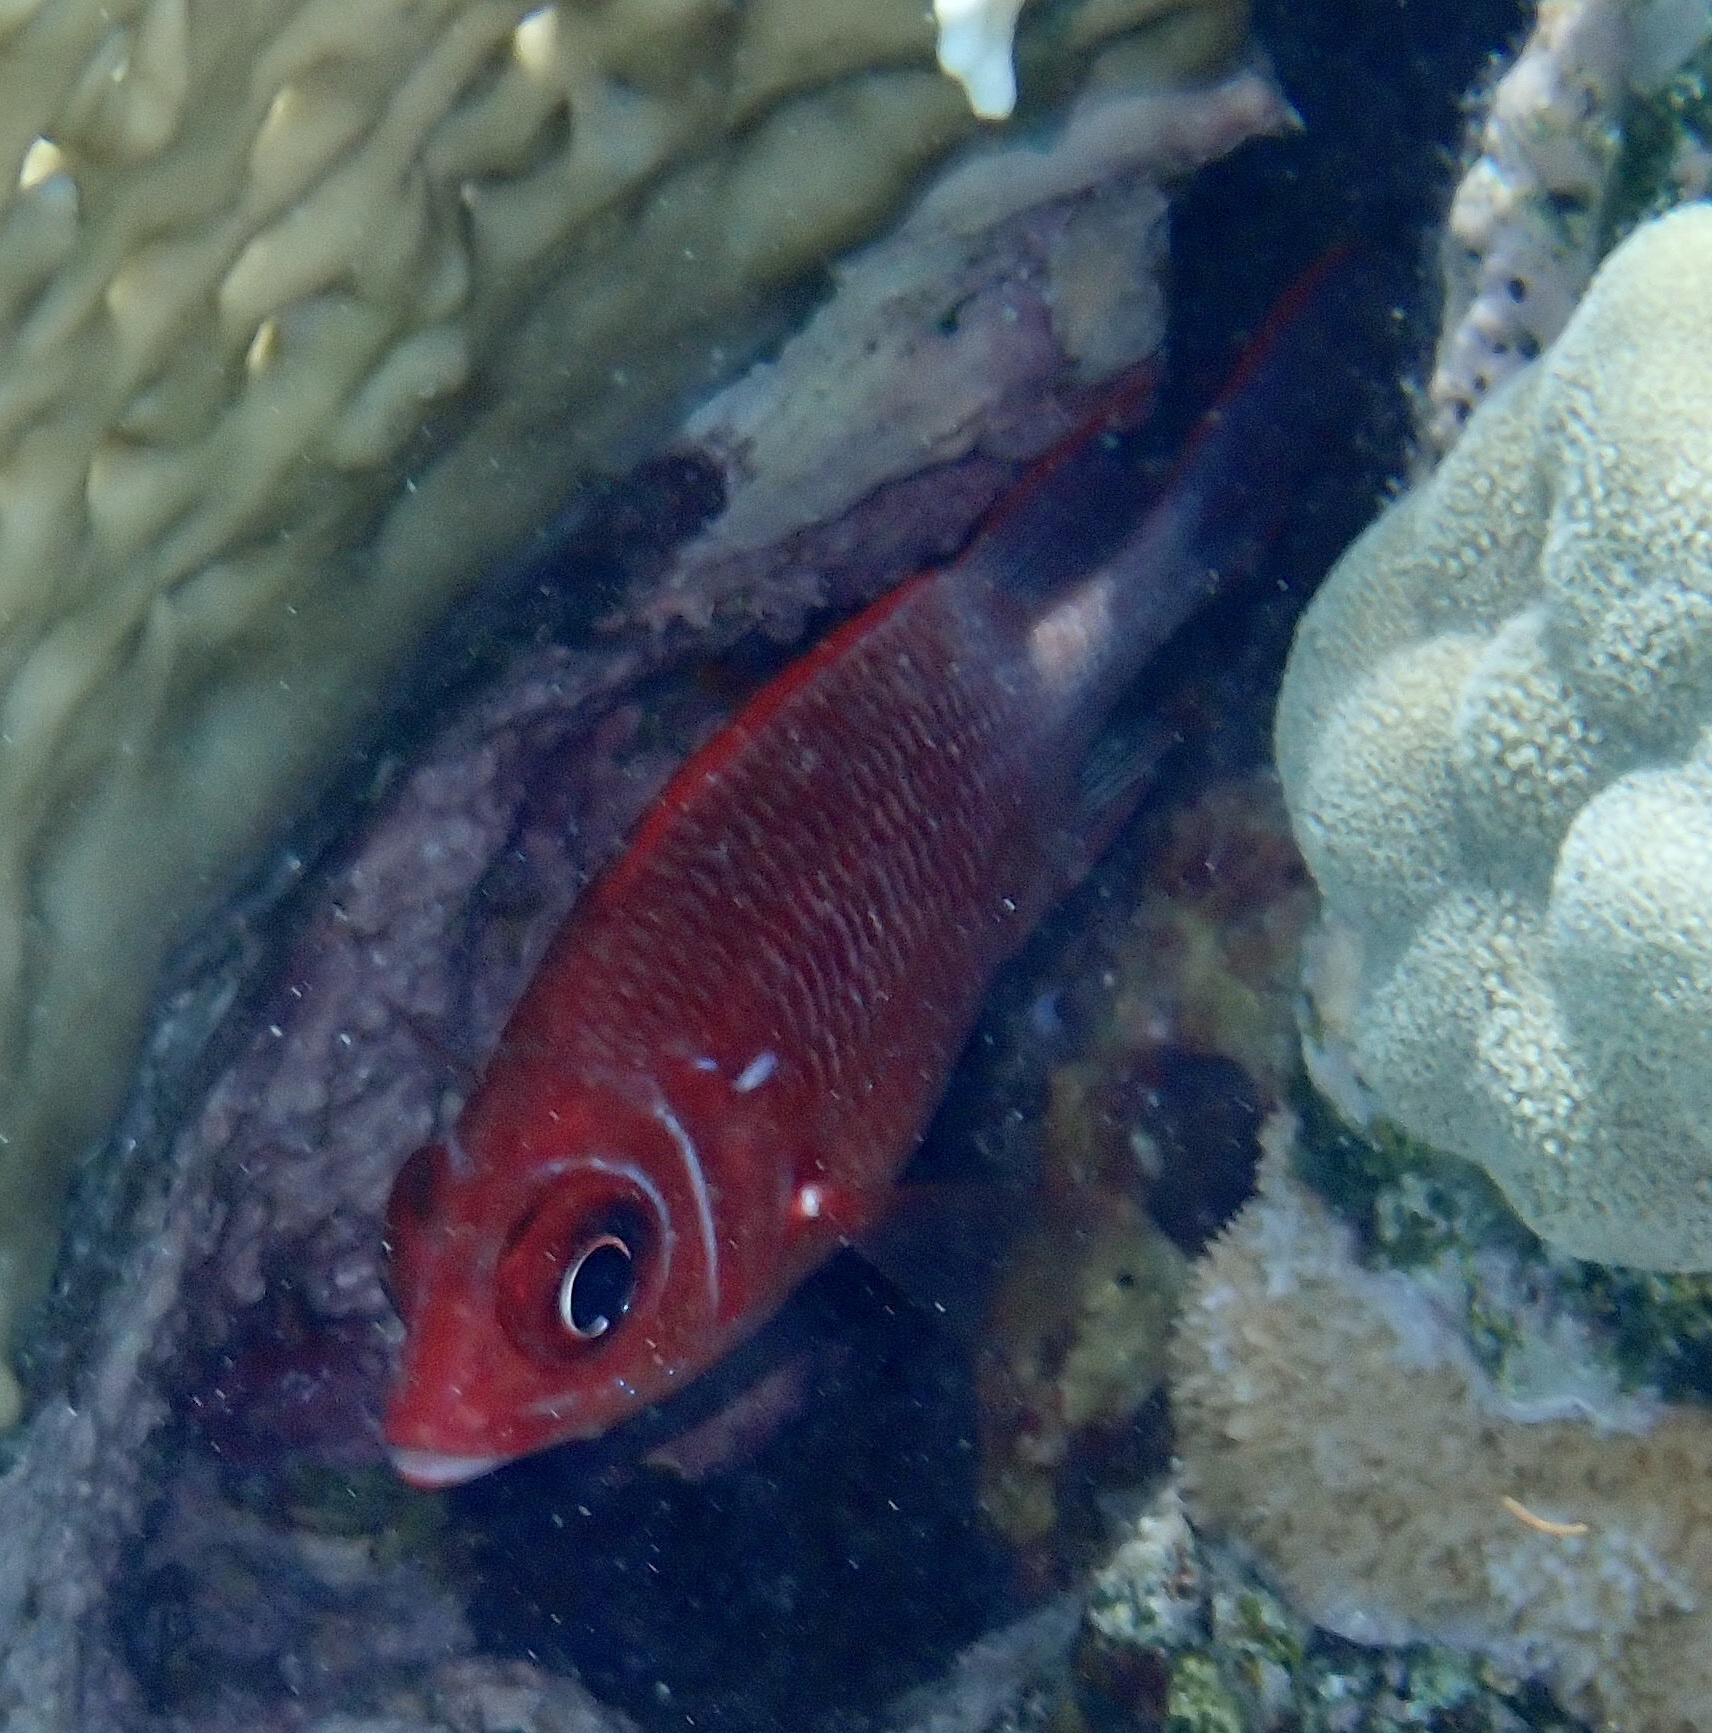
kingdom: Animalia
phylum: Chordata
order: Beryciformes
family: Holocentridae
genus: Sargocentron
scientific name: Sargocentron caudimaculatum
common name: Fanfin soldier
